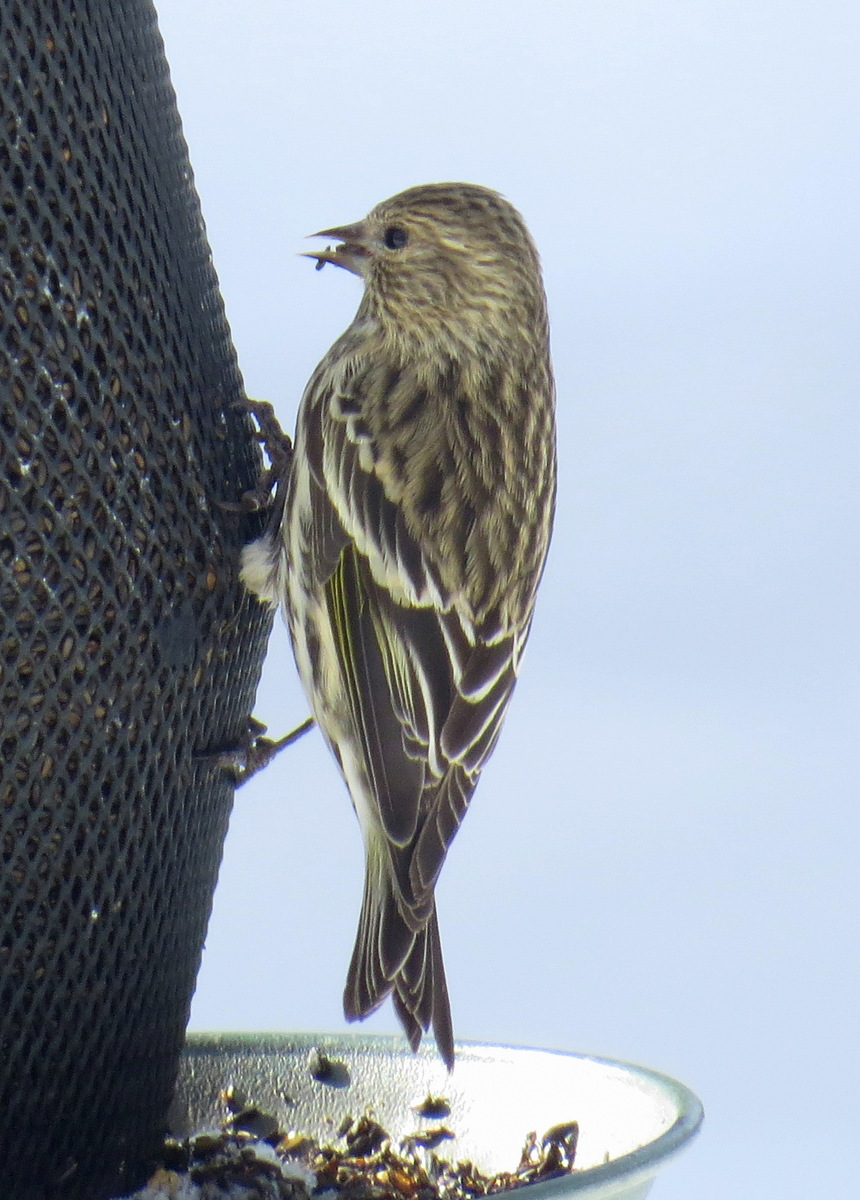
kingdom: Animalia
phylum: Chordata
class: Aves
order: Passeriformes
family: Fringillidae
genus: Spinus
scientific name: Spinus pinus
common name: Pine siskin
